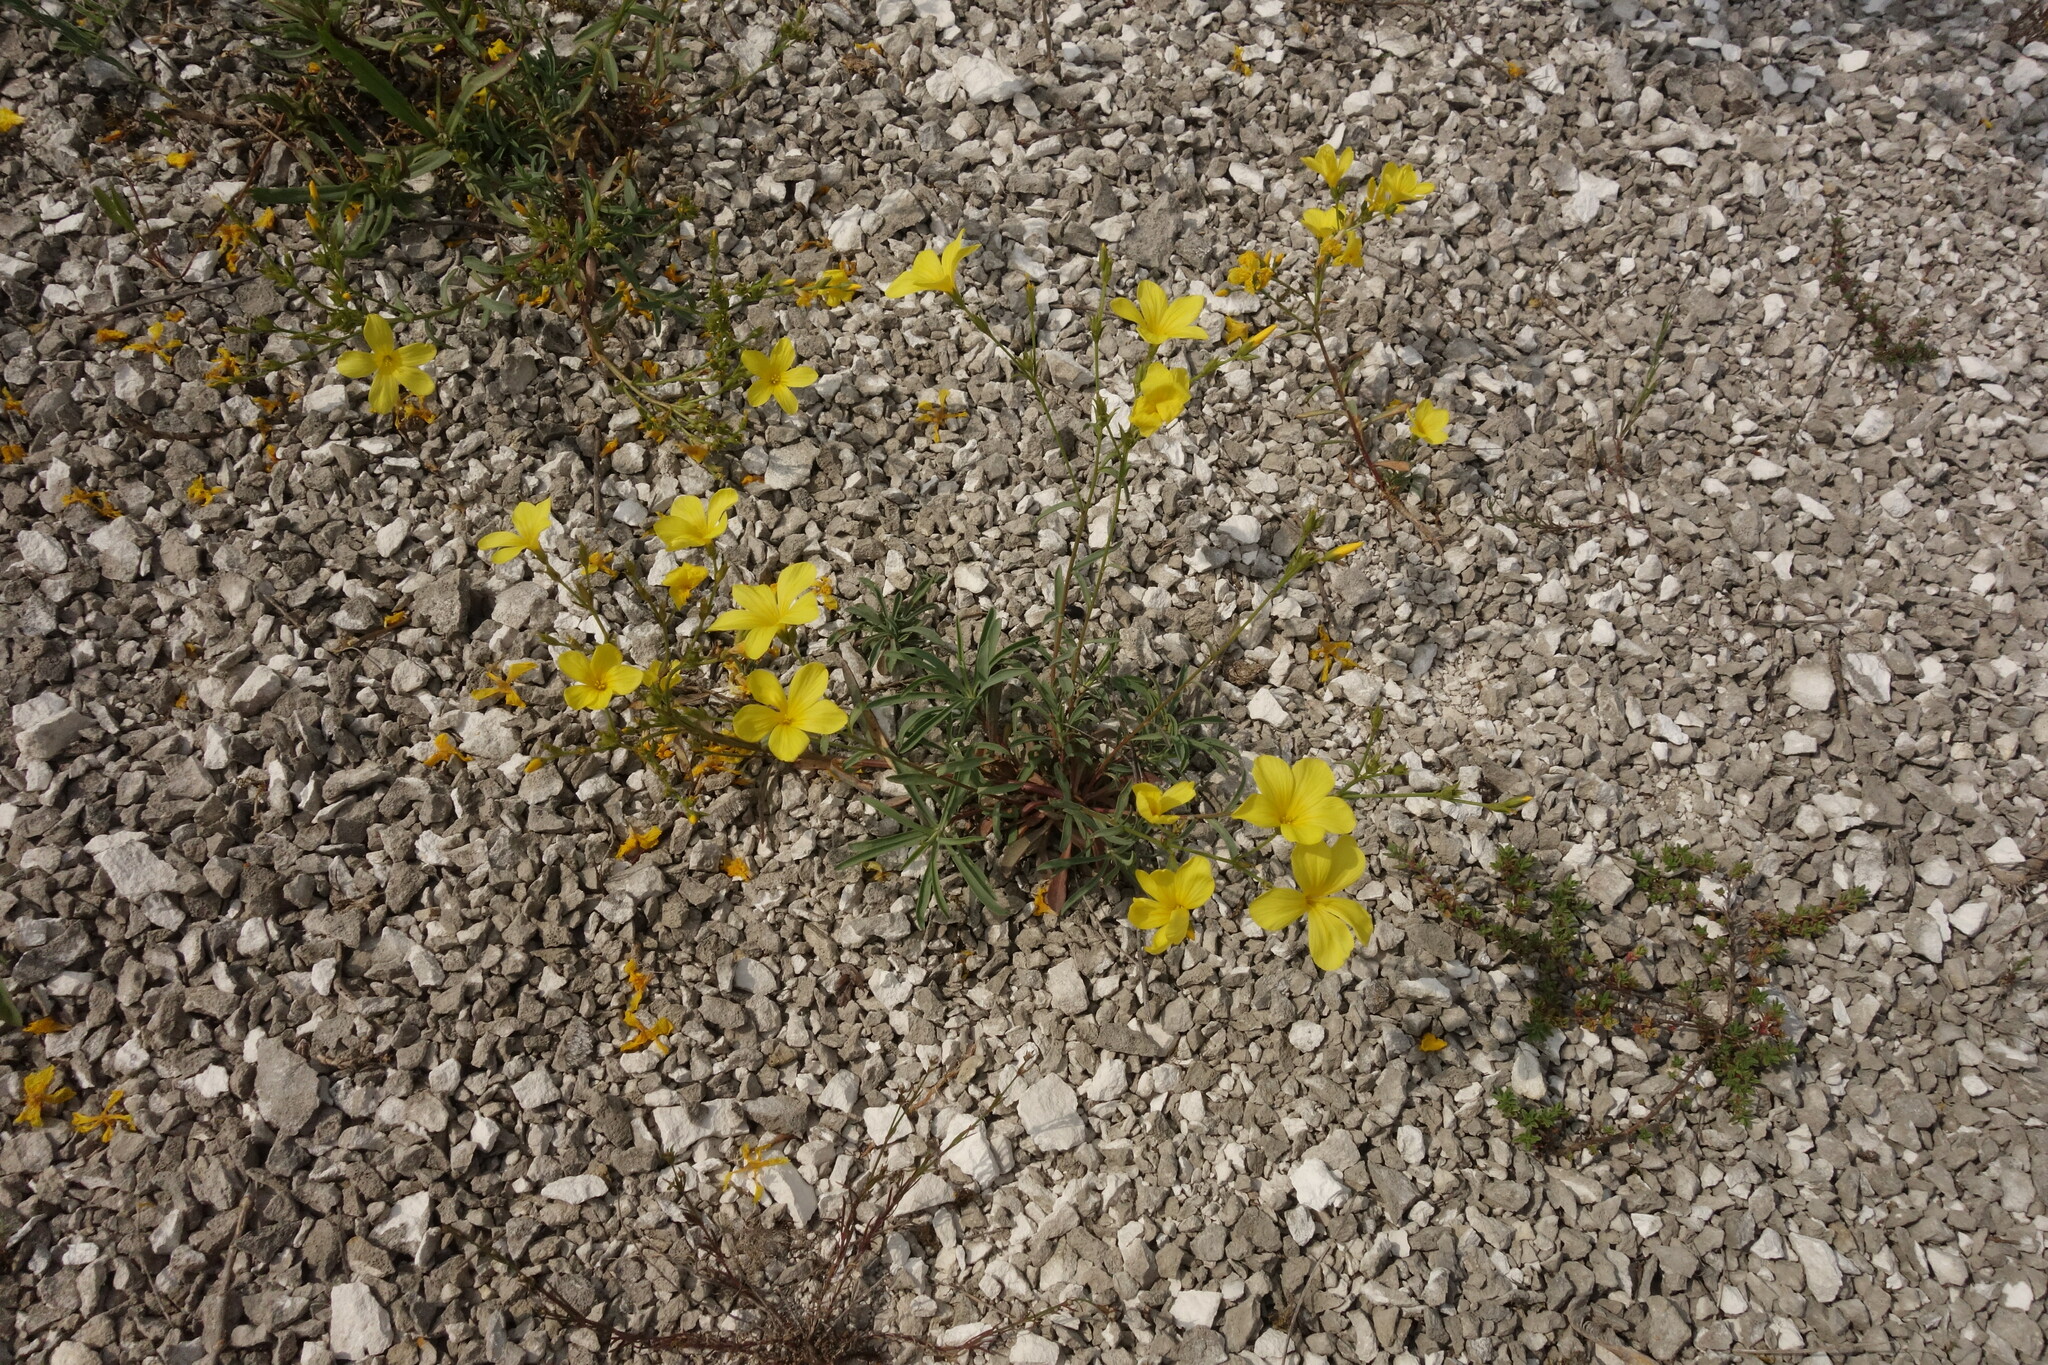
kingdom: Plantae
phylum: Tracheophyta
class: Magnoliopsida
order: Malpighiales
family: Linaceae
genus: Linum
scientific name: Linum ucranicum
